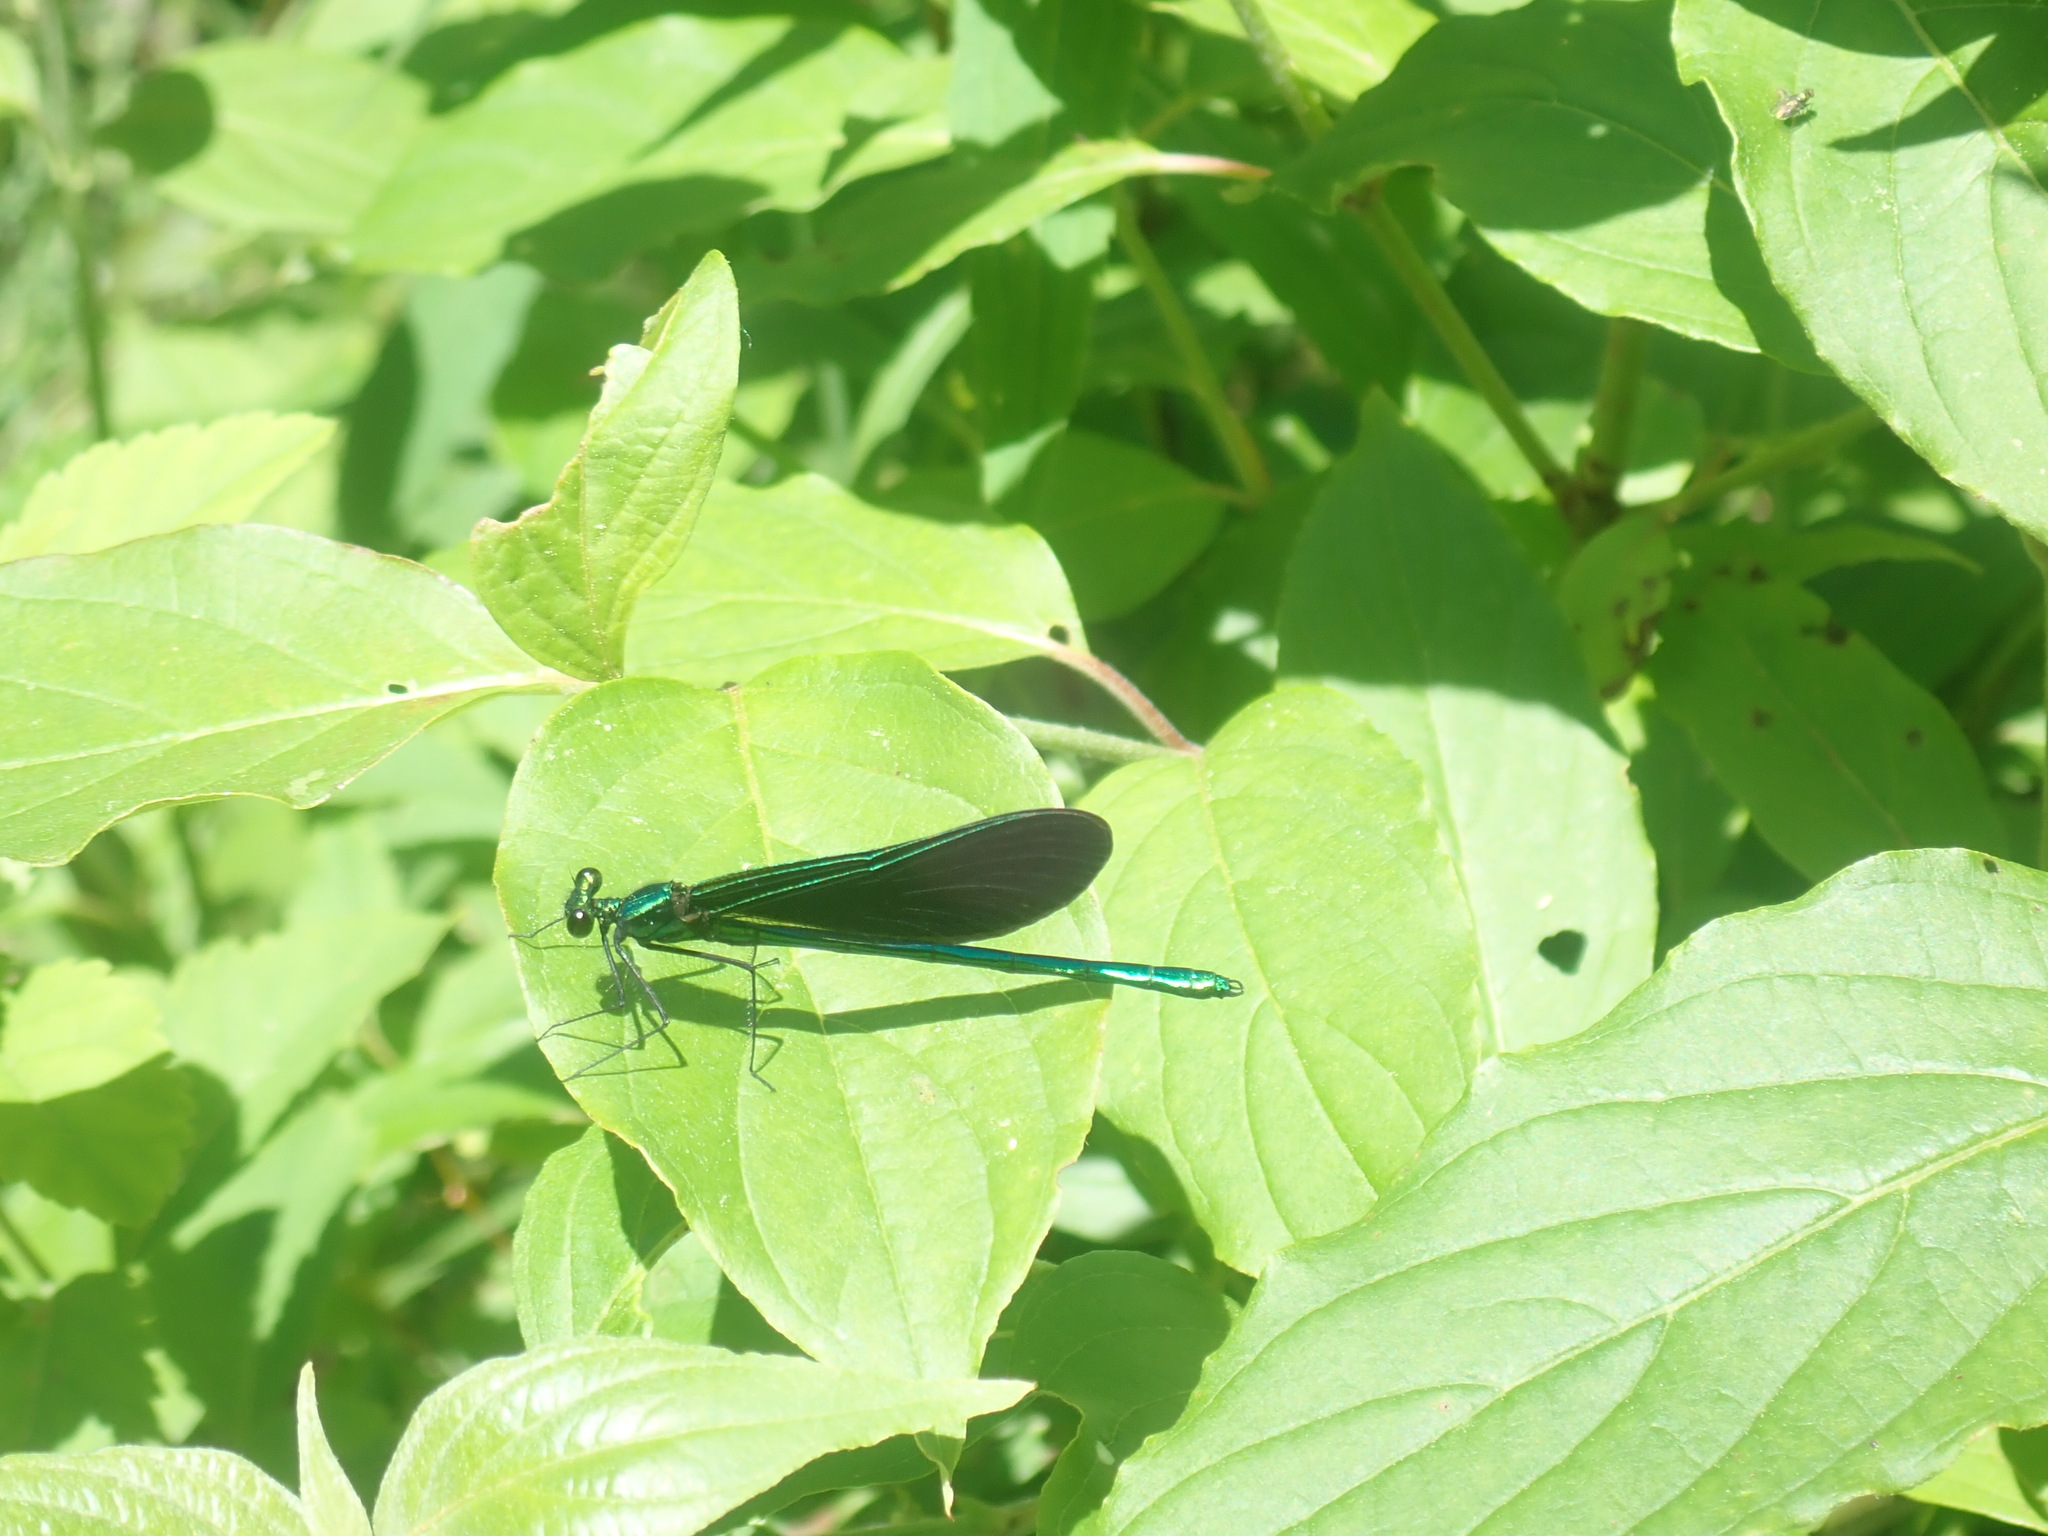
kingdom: Animalia
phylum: Arthropoda
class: Insecta
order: Odonata
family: Calopterygidae
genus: Calopteryx
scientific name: Calopteryx maculata
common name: Ebony jewelwing
